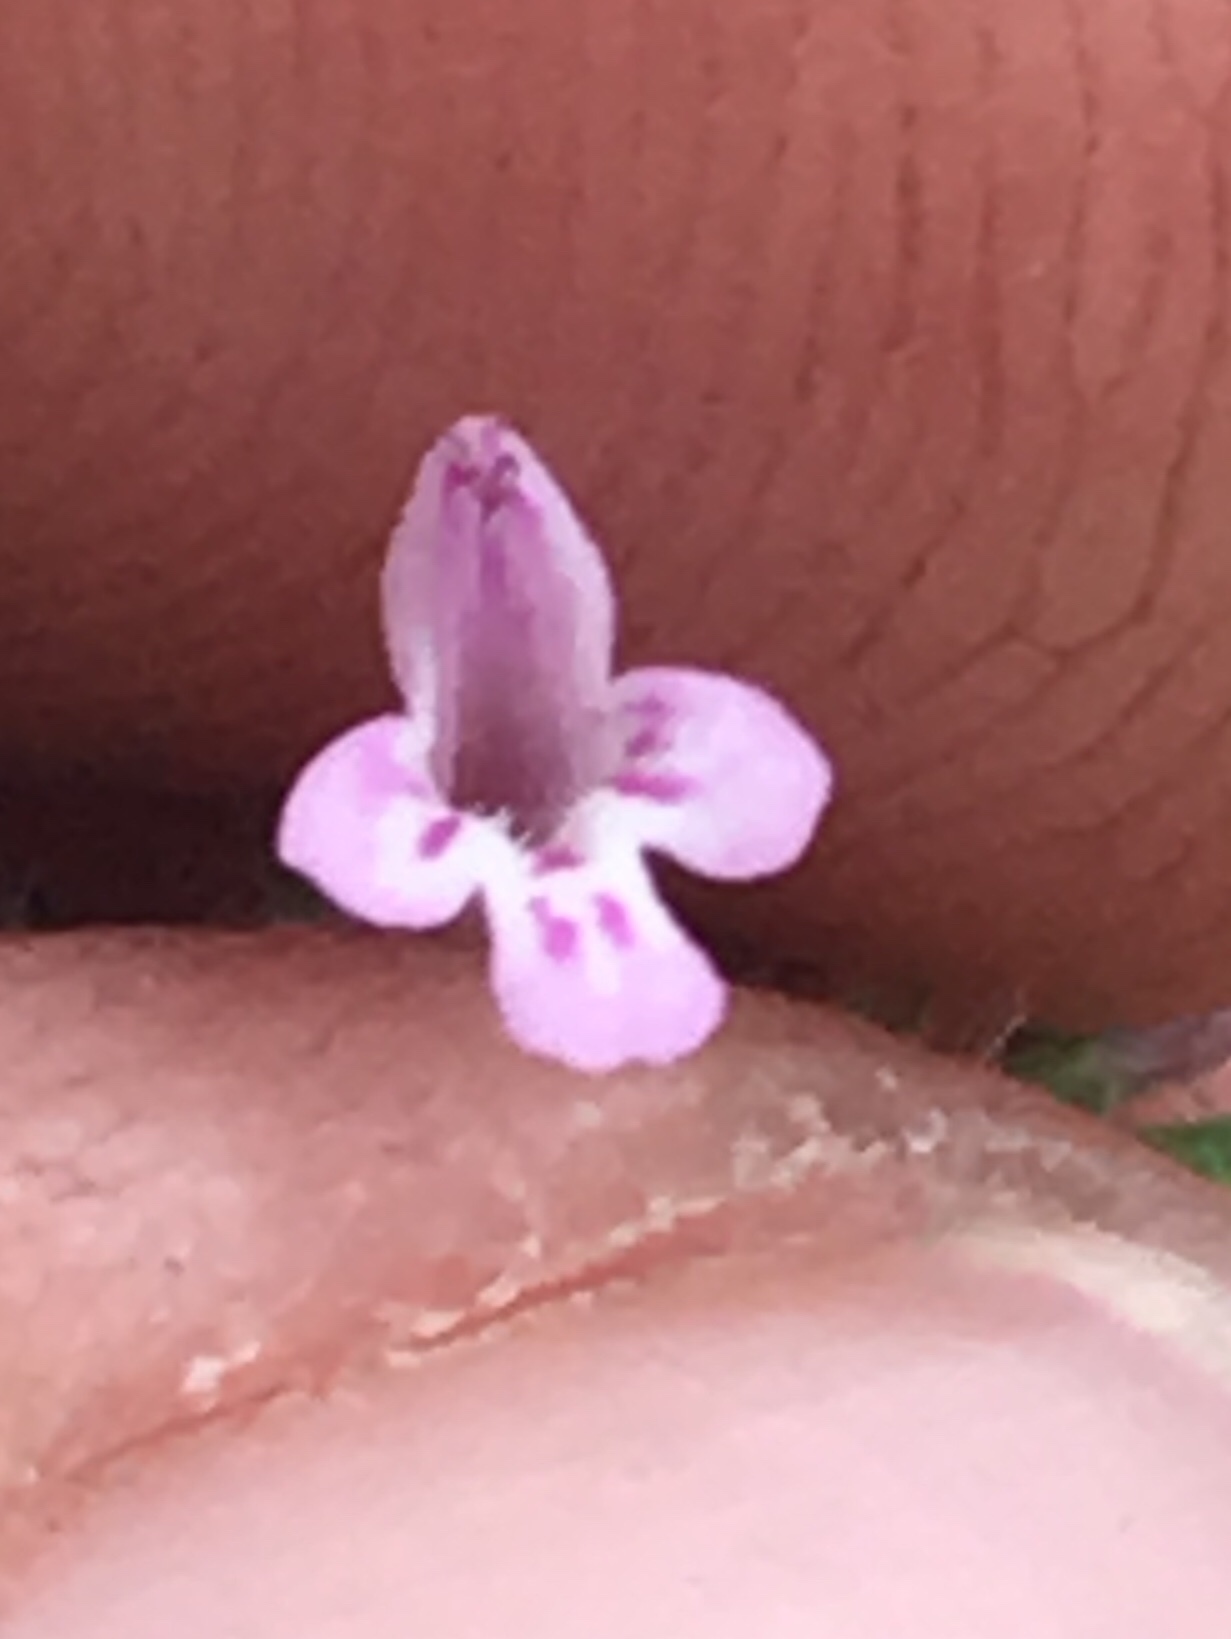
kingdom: Plantae
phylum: Tracheophyta
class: Magnoliopsida
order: Lamiales
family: Lamiaceae
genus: Hedeoma
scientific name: Hedeoma dentata
